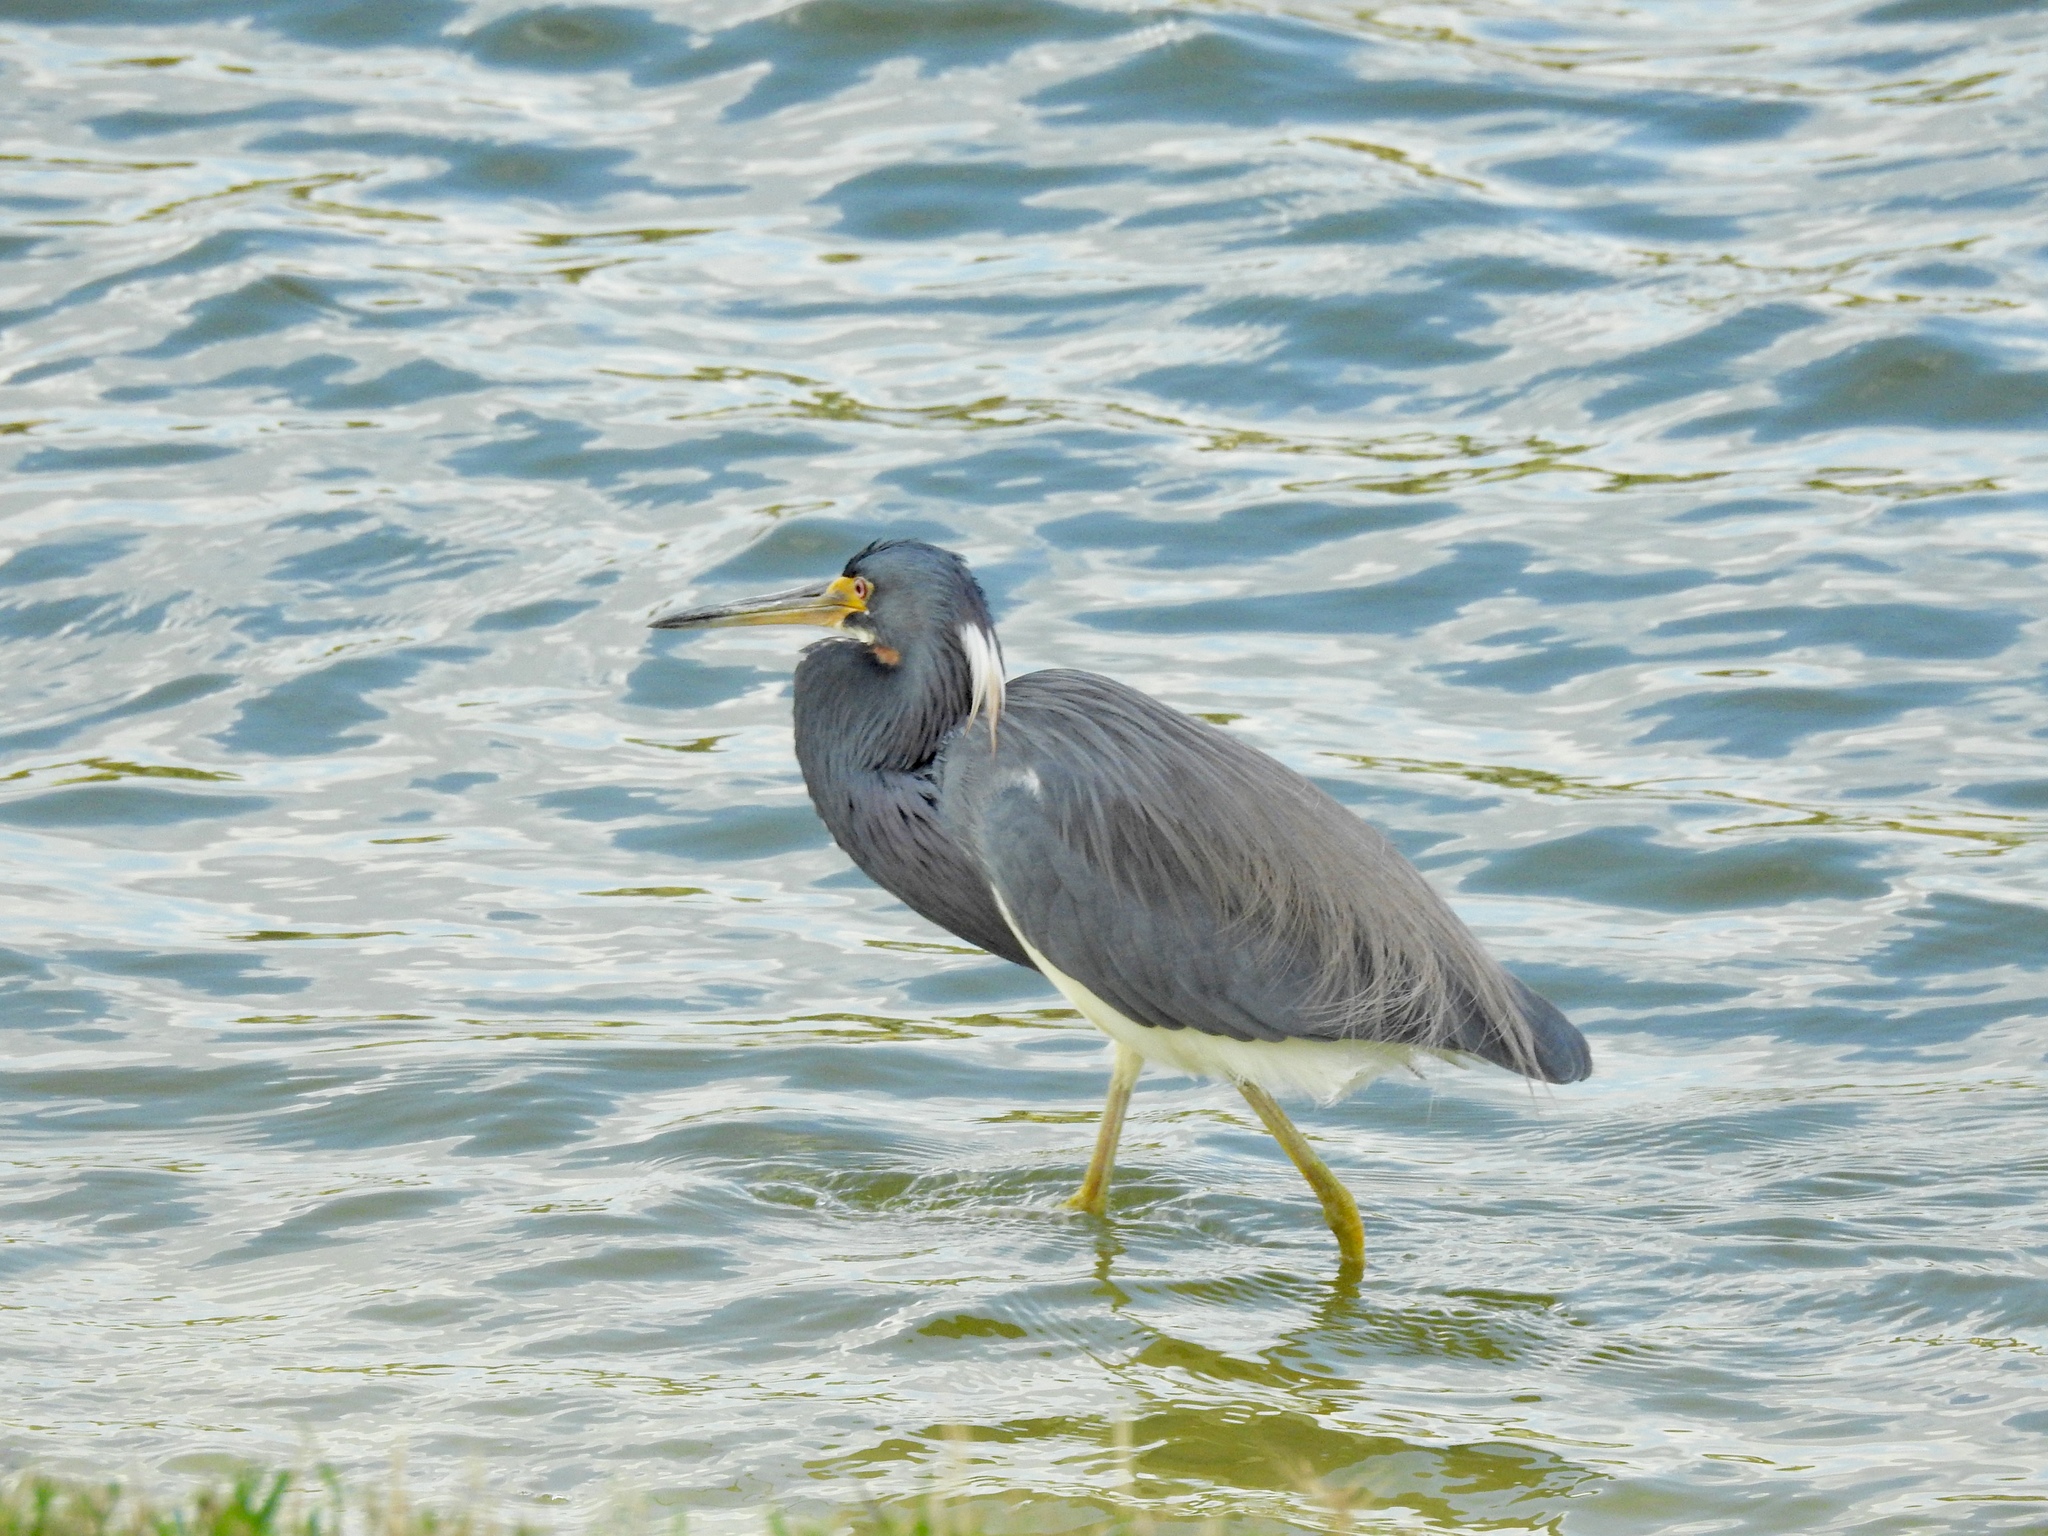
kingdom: Animalia
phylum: Chordata
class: Aves
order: Pelecaniformes
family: Ardeidae
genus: Egretta
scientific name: Egretta tricolor
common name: Tricolored heron
